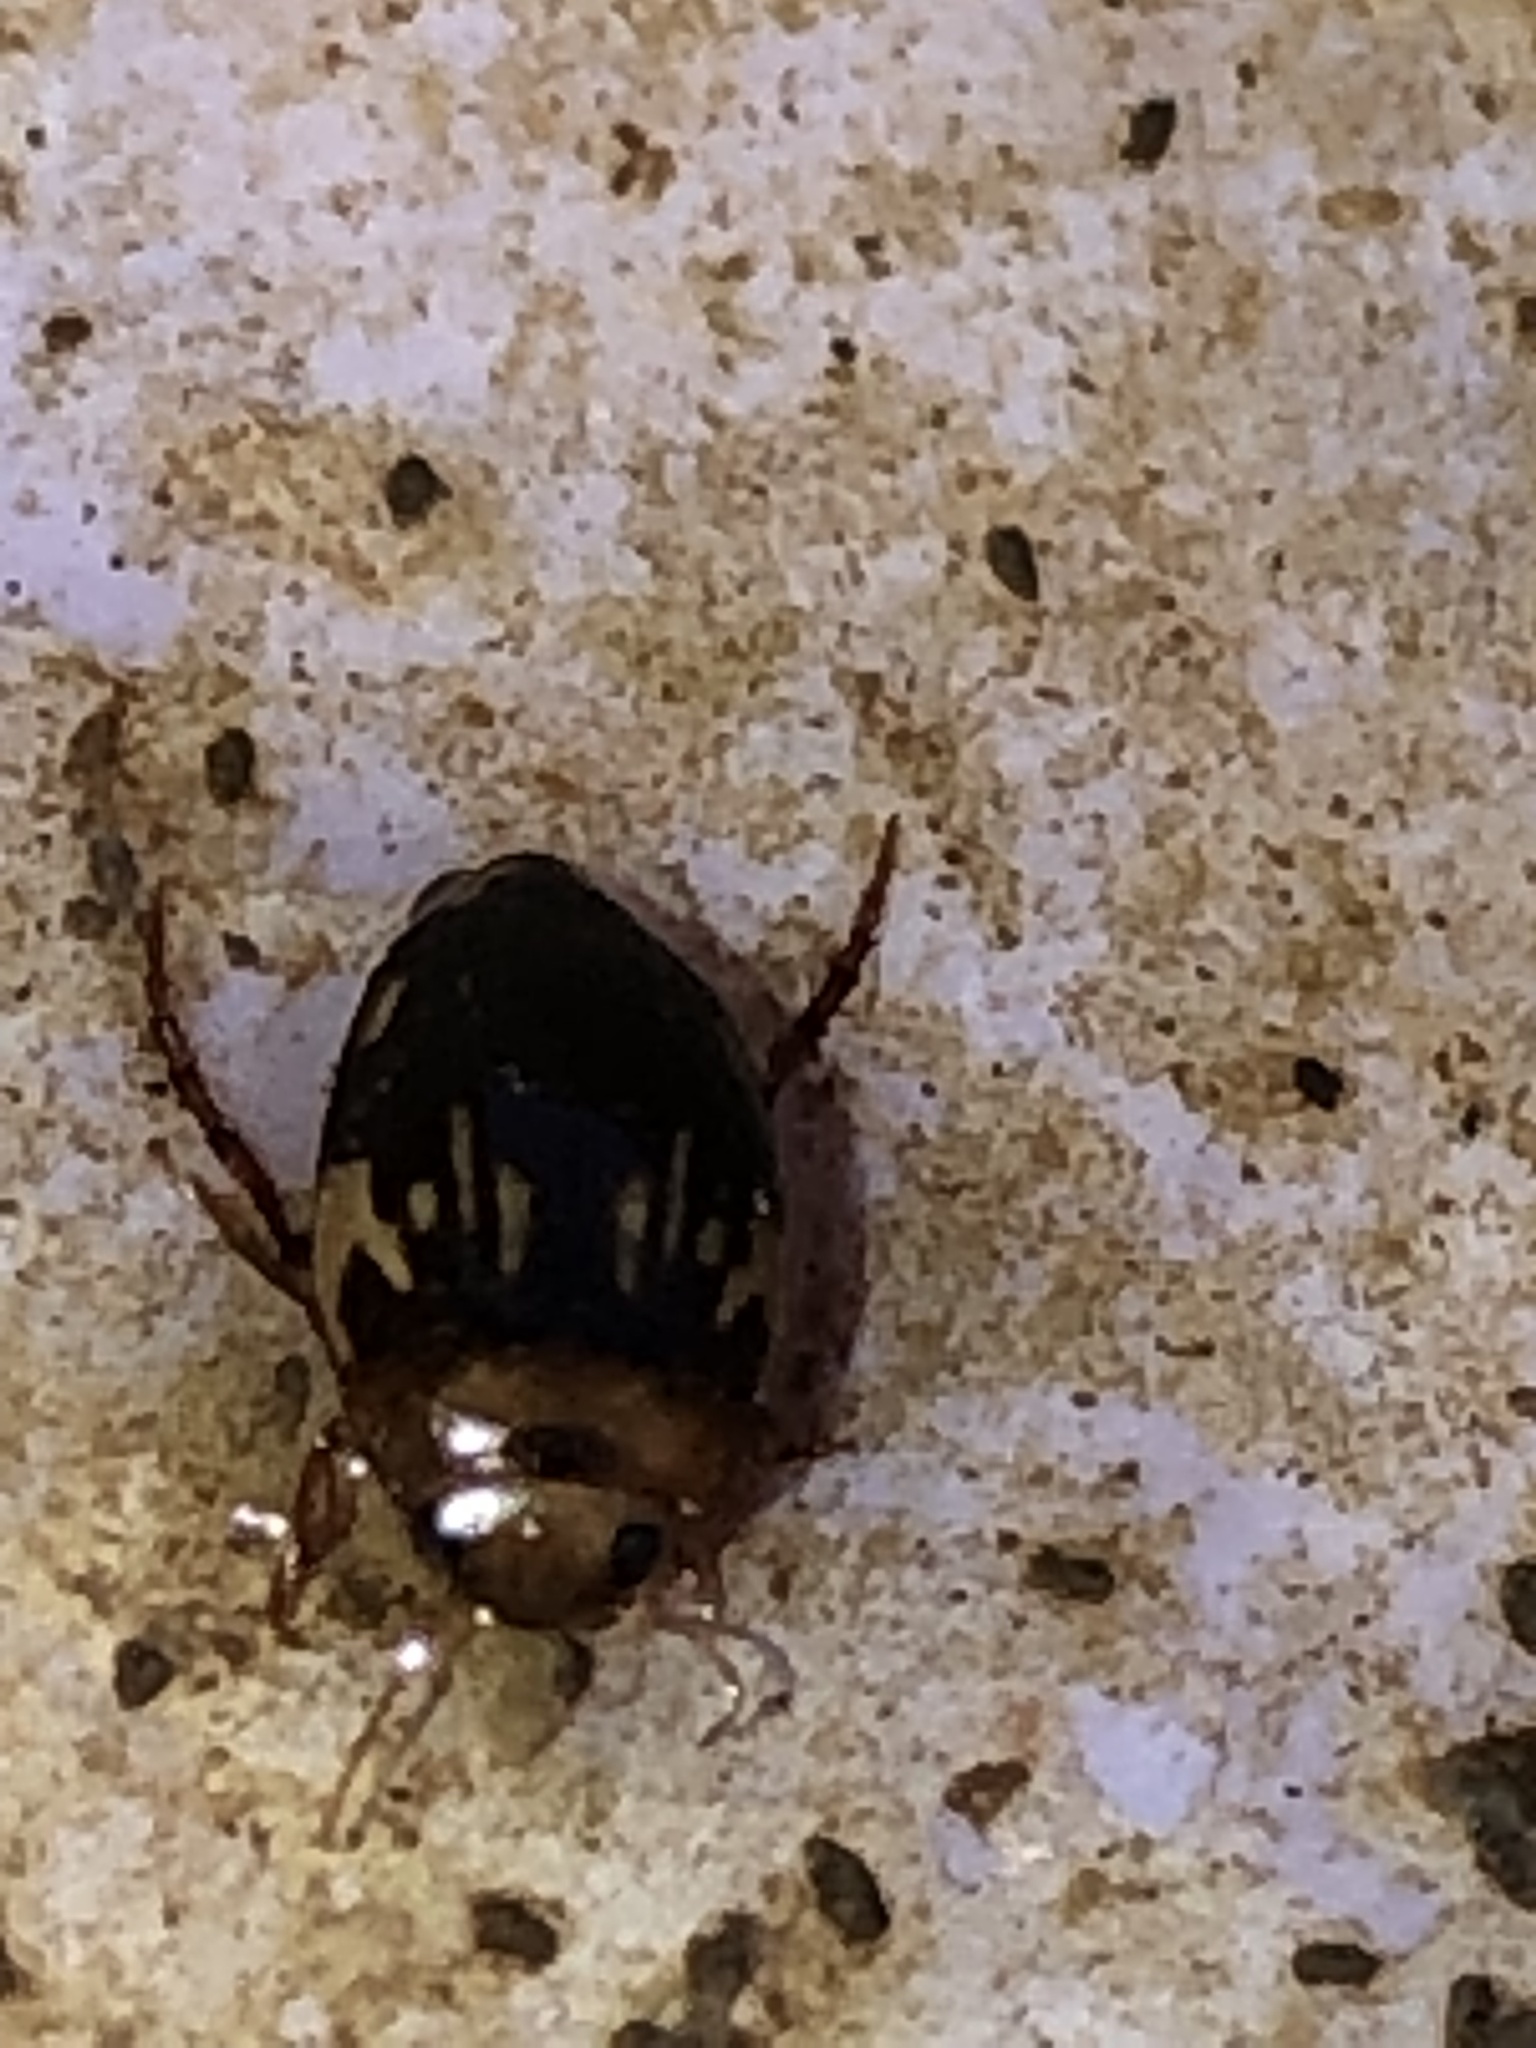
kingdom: Animalia
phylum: Arthropoda
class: Insecta
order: Coleoptera
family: Dytiscidae
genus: Neoporus
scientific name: Neoporus
